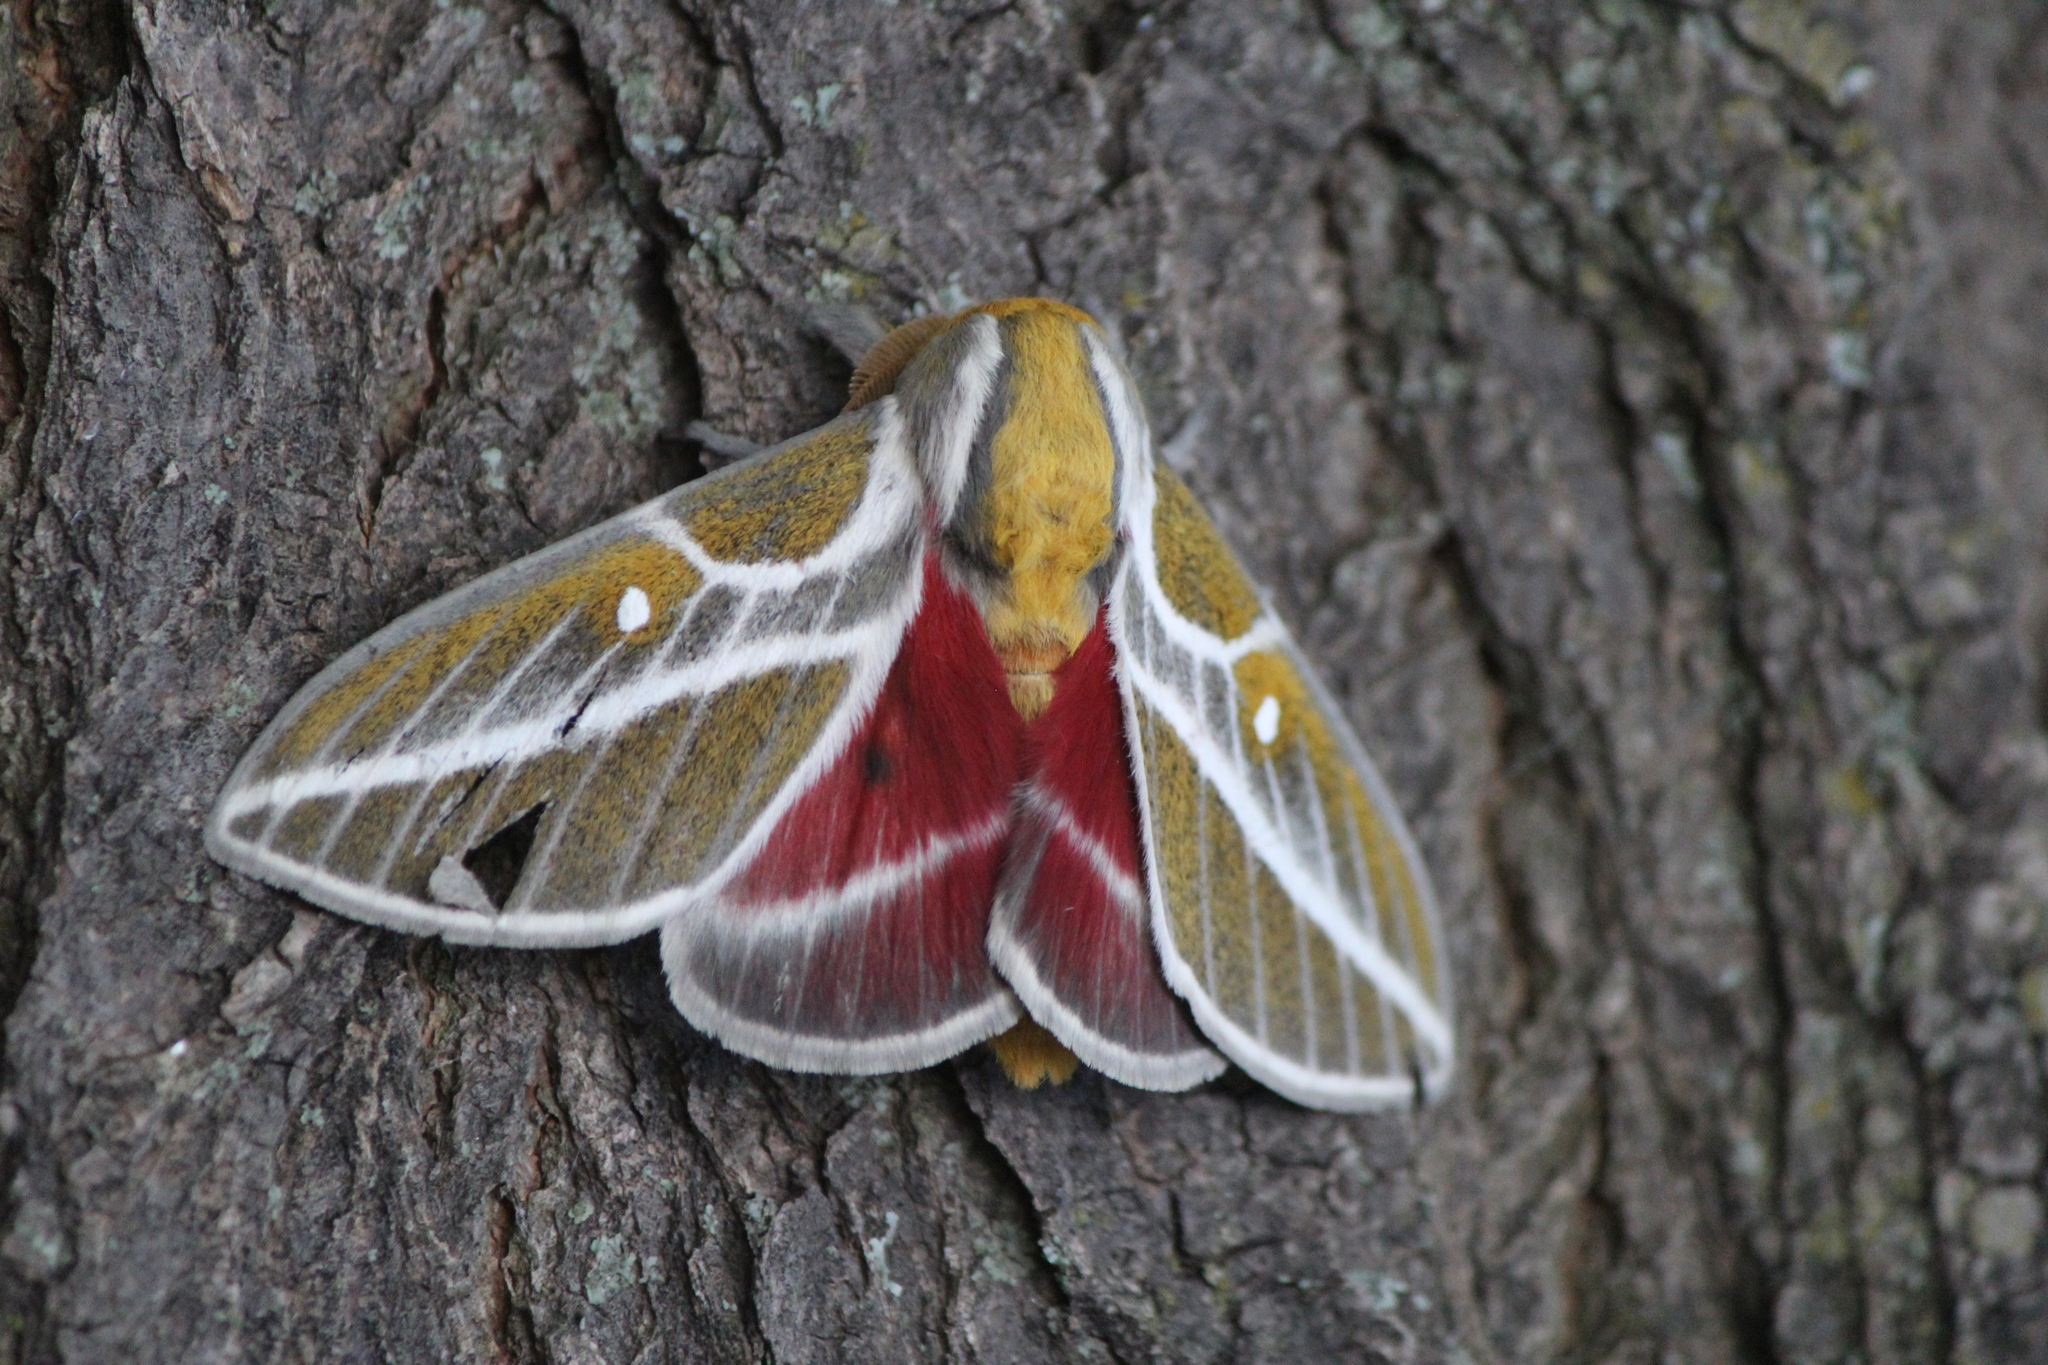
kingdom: Animalia
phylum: Arthropoda
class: Insecta
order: Lepidoptera
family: Saturniidae
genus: Syssphinx
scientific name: Syssphinx albolineata
